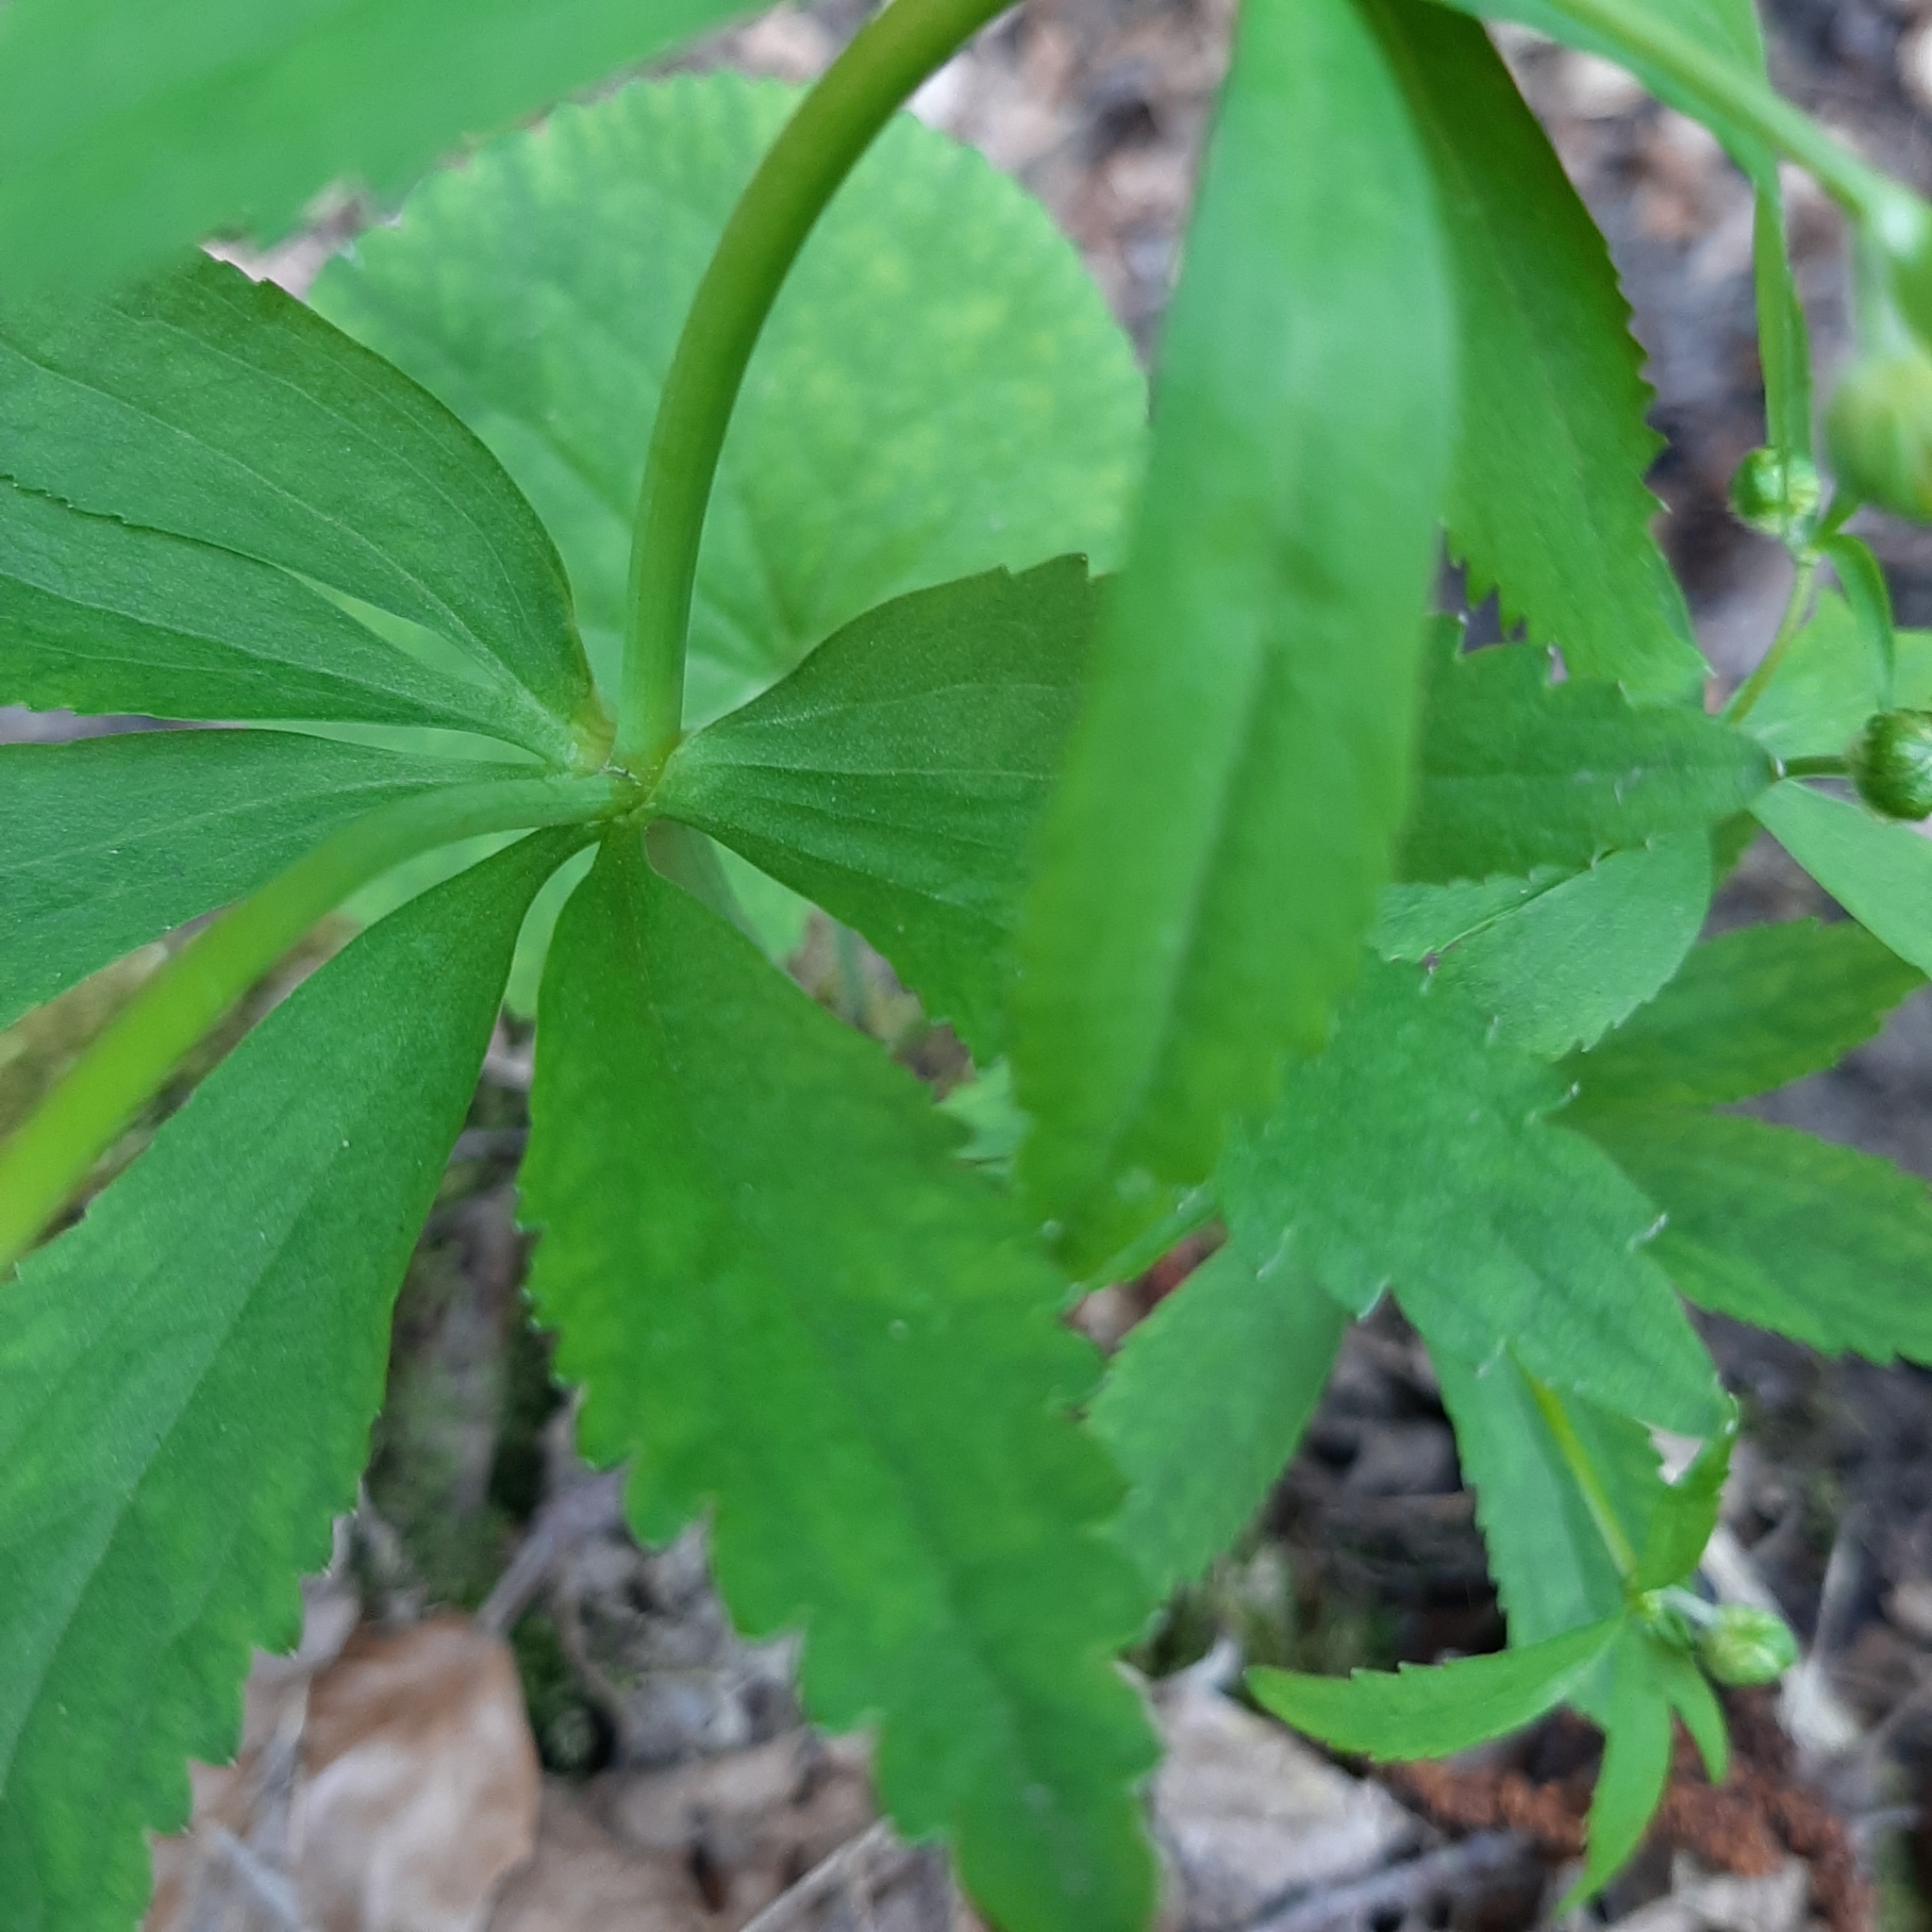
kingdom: Plantae
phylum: Tracheophyta
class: Magnoliopsida
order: Ranunculales
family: Ranunculaceae
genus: Ranunculus
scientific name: Ranunculus cassubicus
